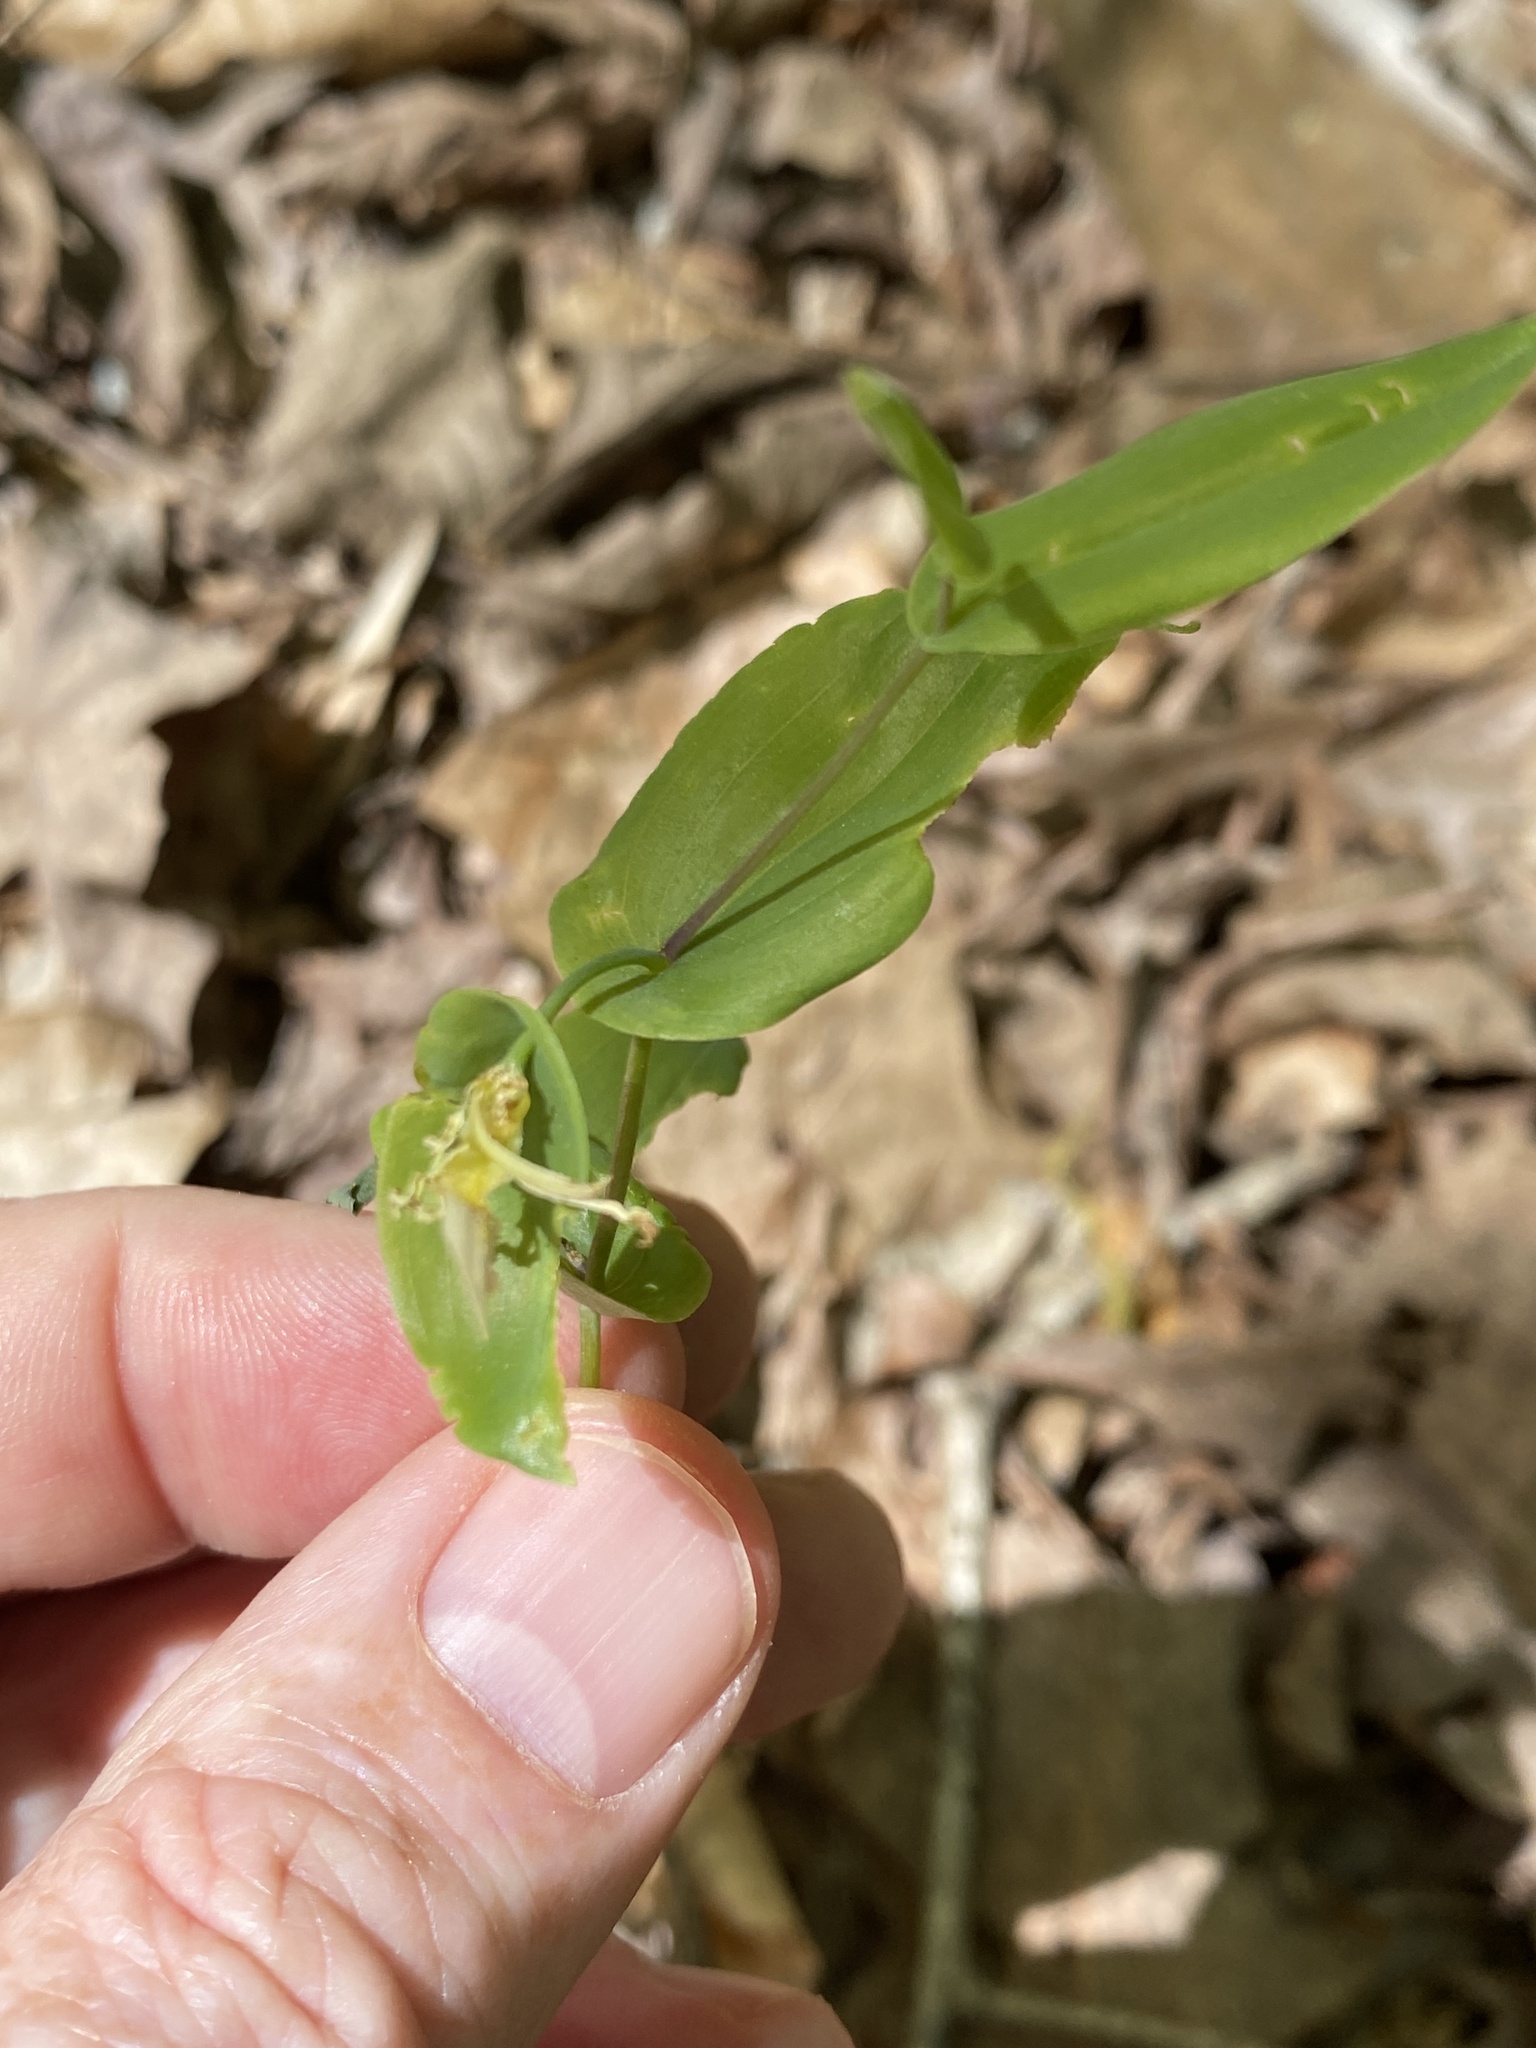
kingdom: Plantae
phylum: Tracheophyta
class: Liliopsida
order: Liliales
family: Colchicaceae
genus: Uvularia
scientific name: Uvularia perfoliata
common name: Perfoliate bellwort
